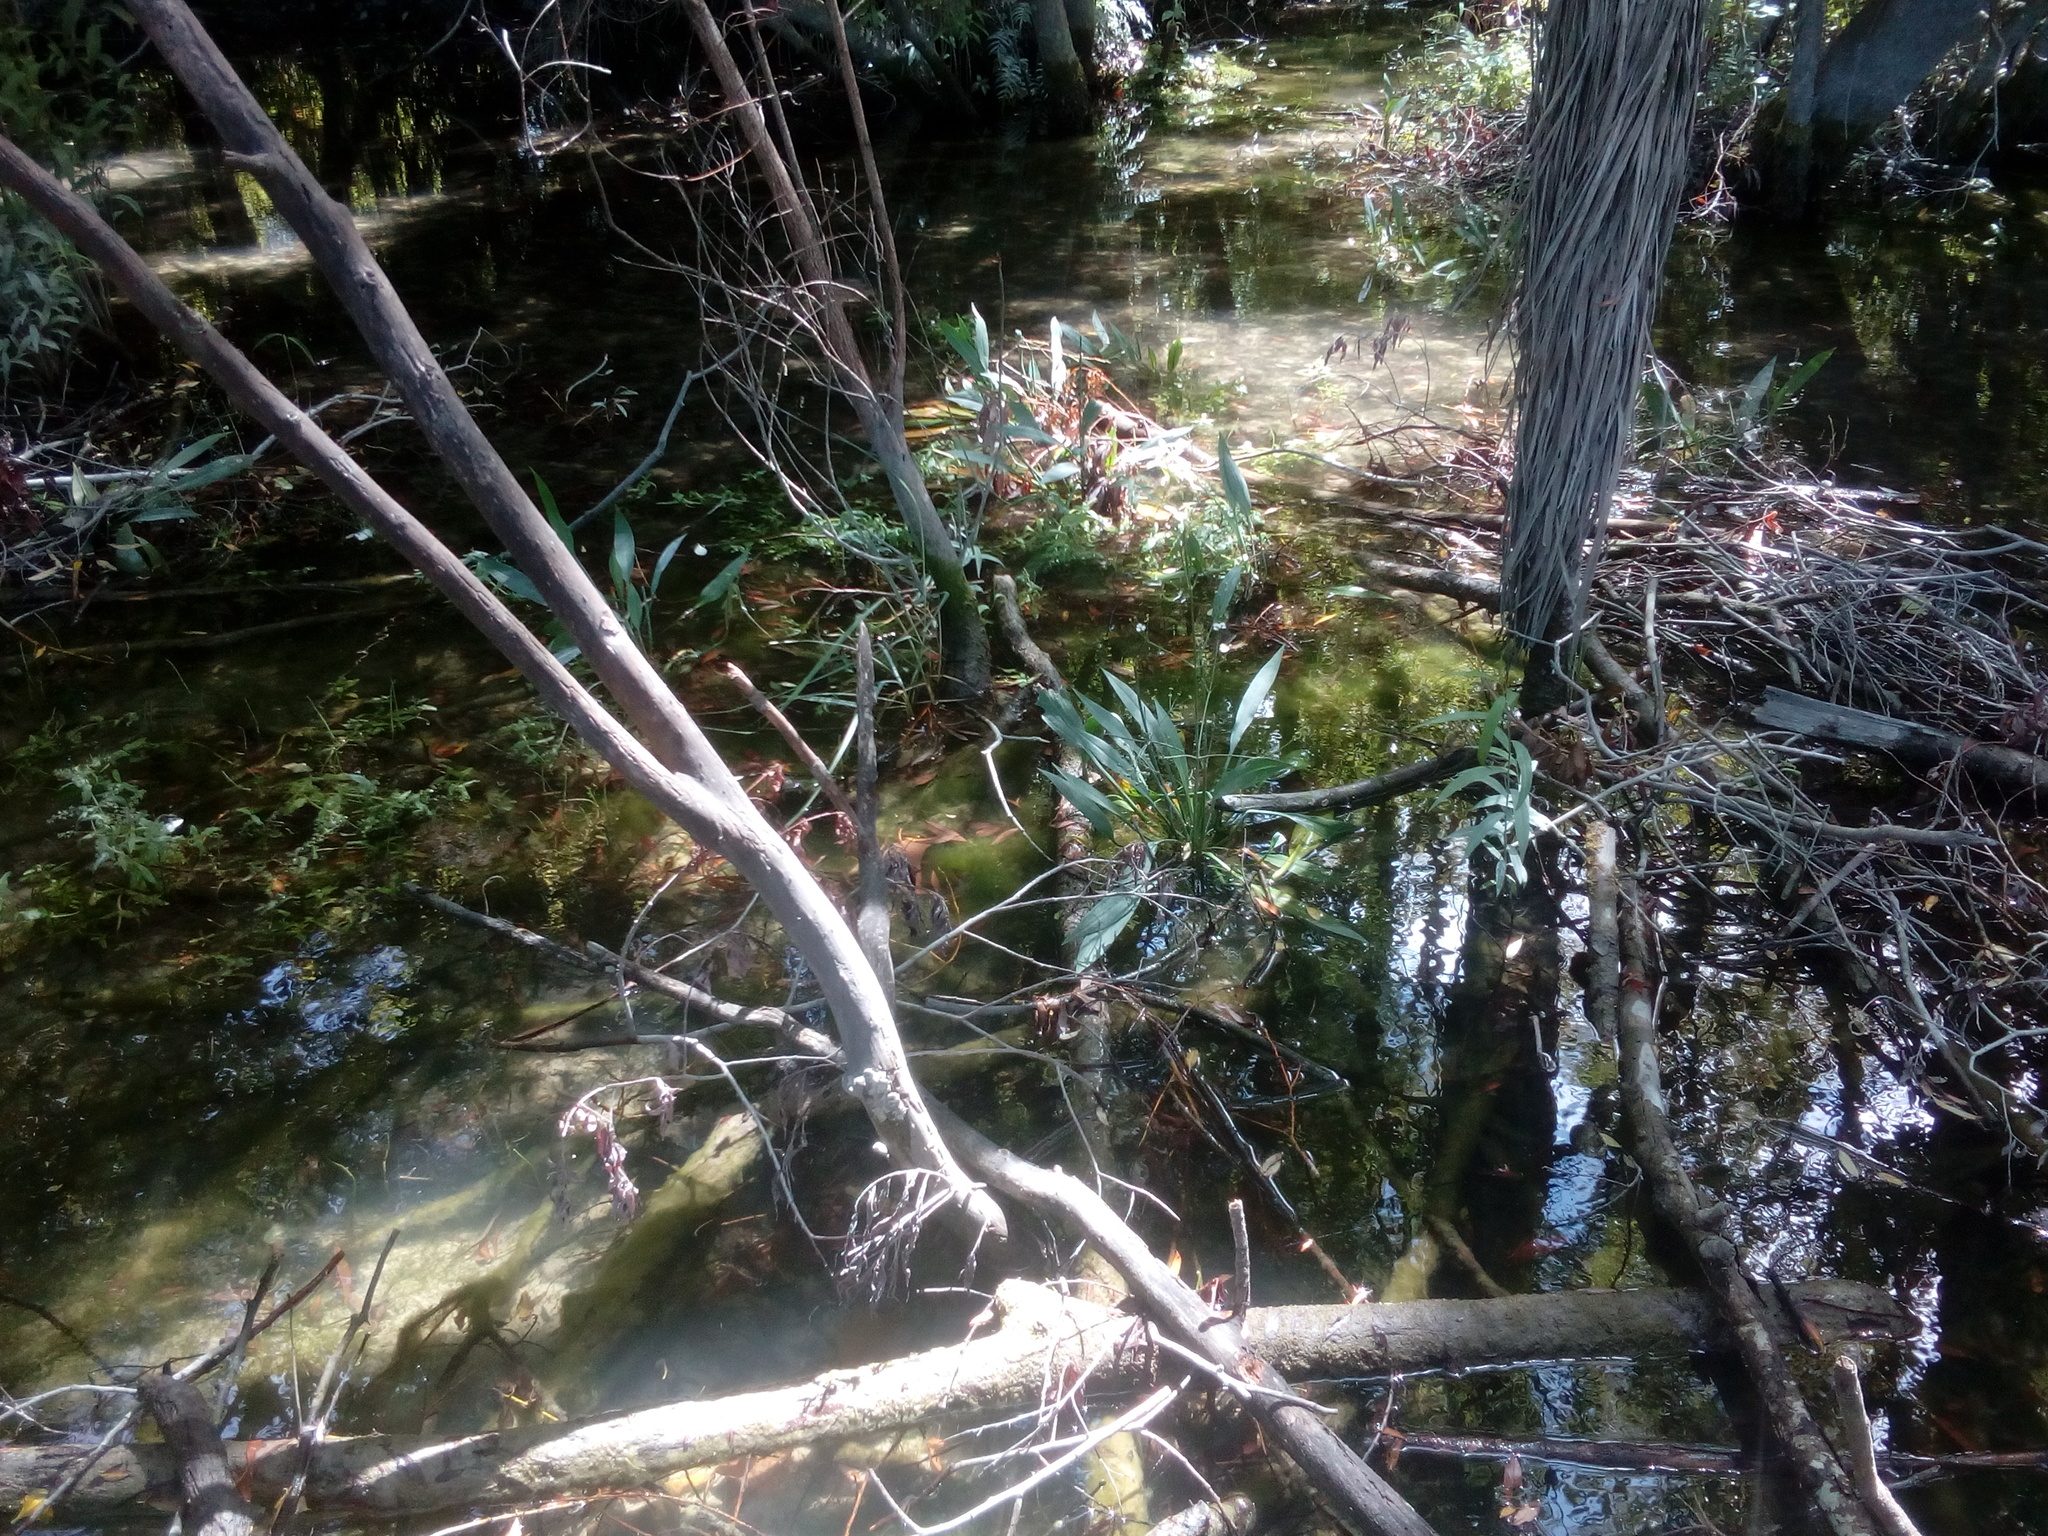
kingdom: Plantae
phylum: Tracheophyta
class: Liliopsida
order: Alismatales
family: Alismataceae
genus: Alisma
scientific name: Alisma lanceolatum
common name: Narrow-leaved water-plantain
